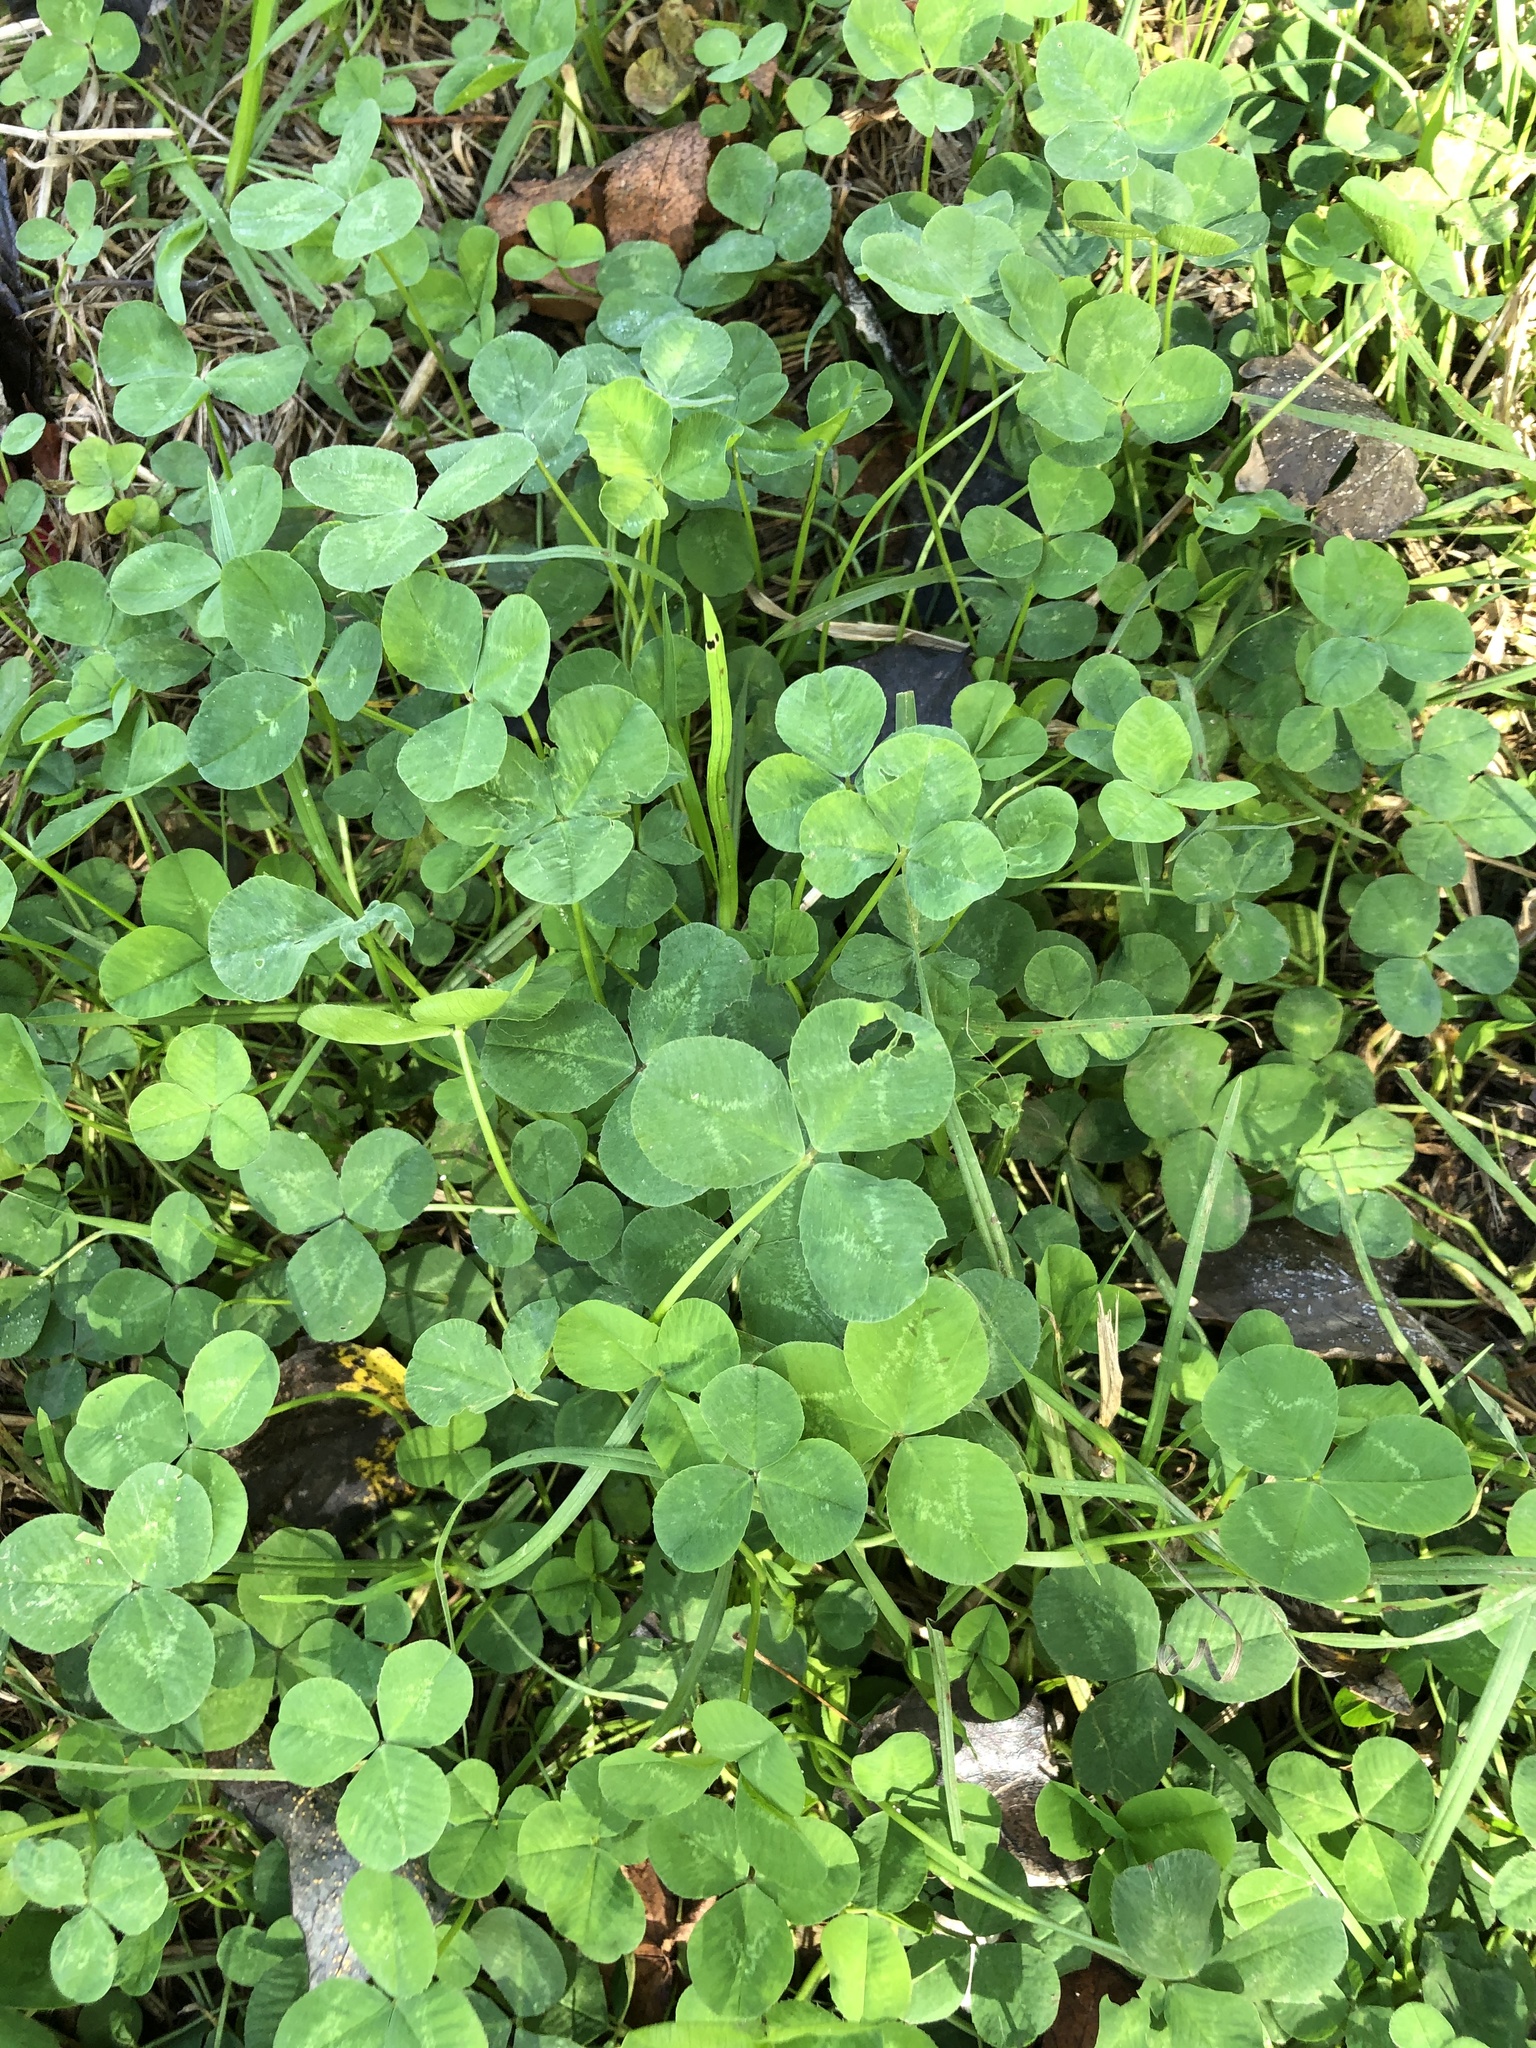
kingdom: Plantae
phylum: Tracheophyta
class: Magnoliopsida
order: Fabales
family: Fabaceae
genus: Trifolium
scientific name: Trifolium repens
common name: White clover
